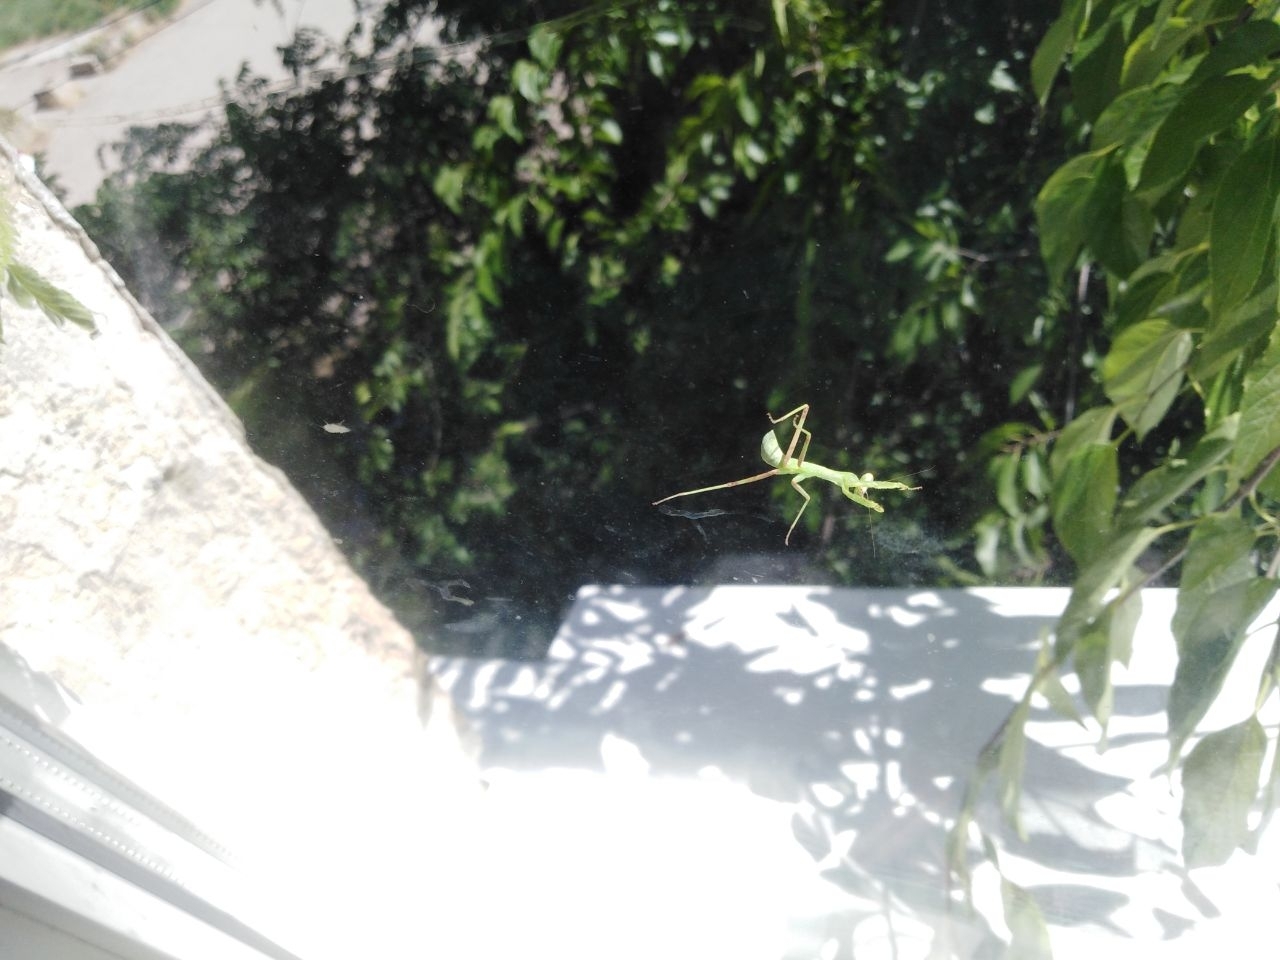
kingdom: Animalia
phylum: Arthropoda
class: Insecta
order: Mantodea
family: Mantidae
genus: Hierodula
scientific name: Hierodula transcaucasica
